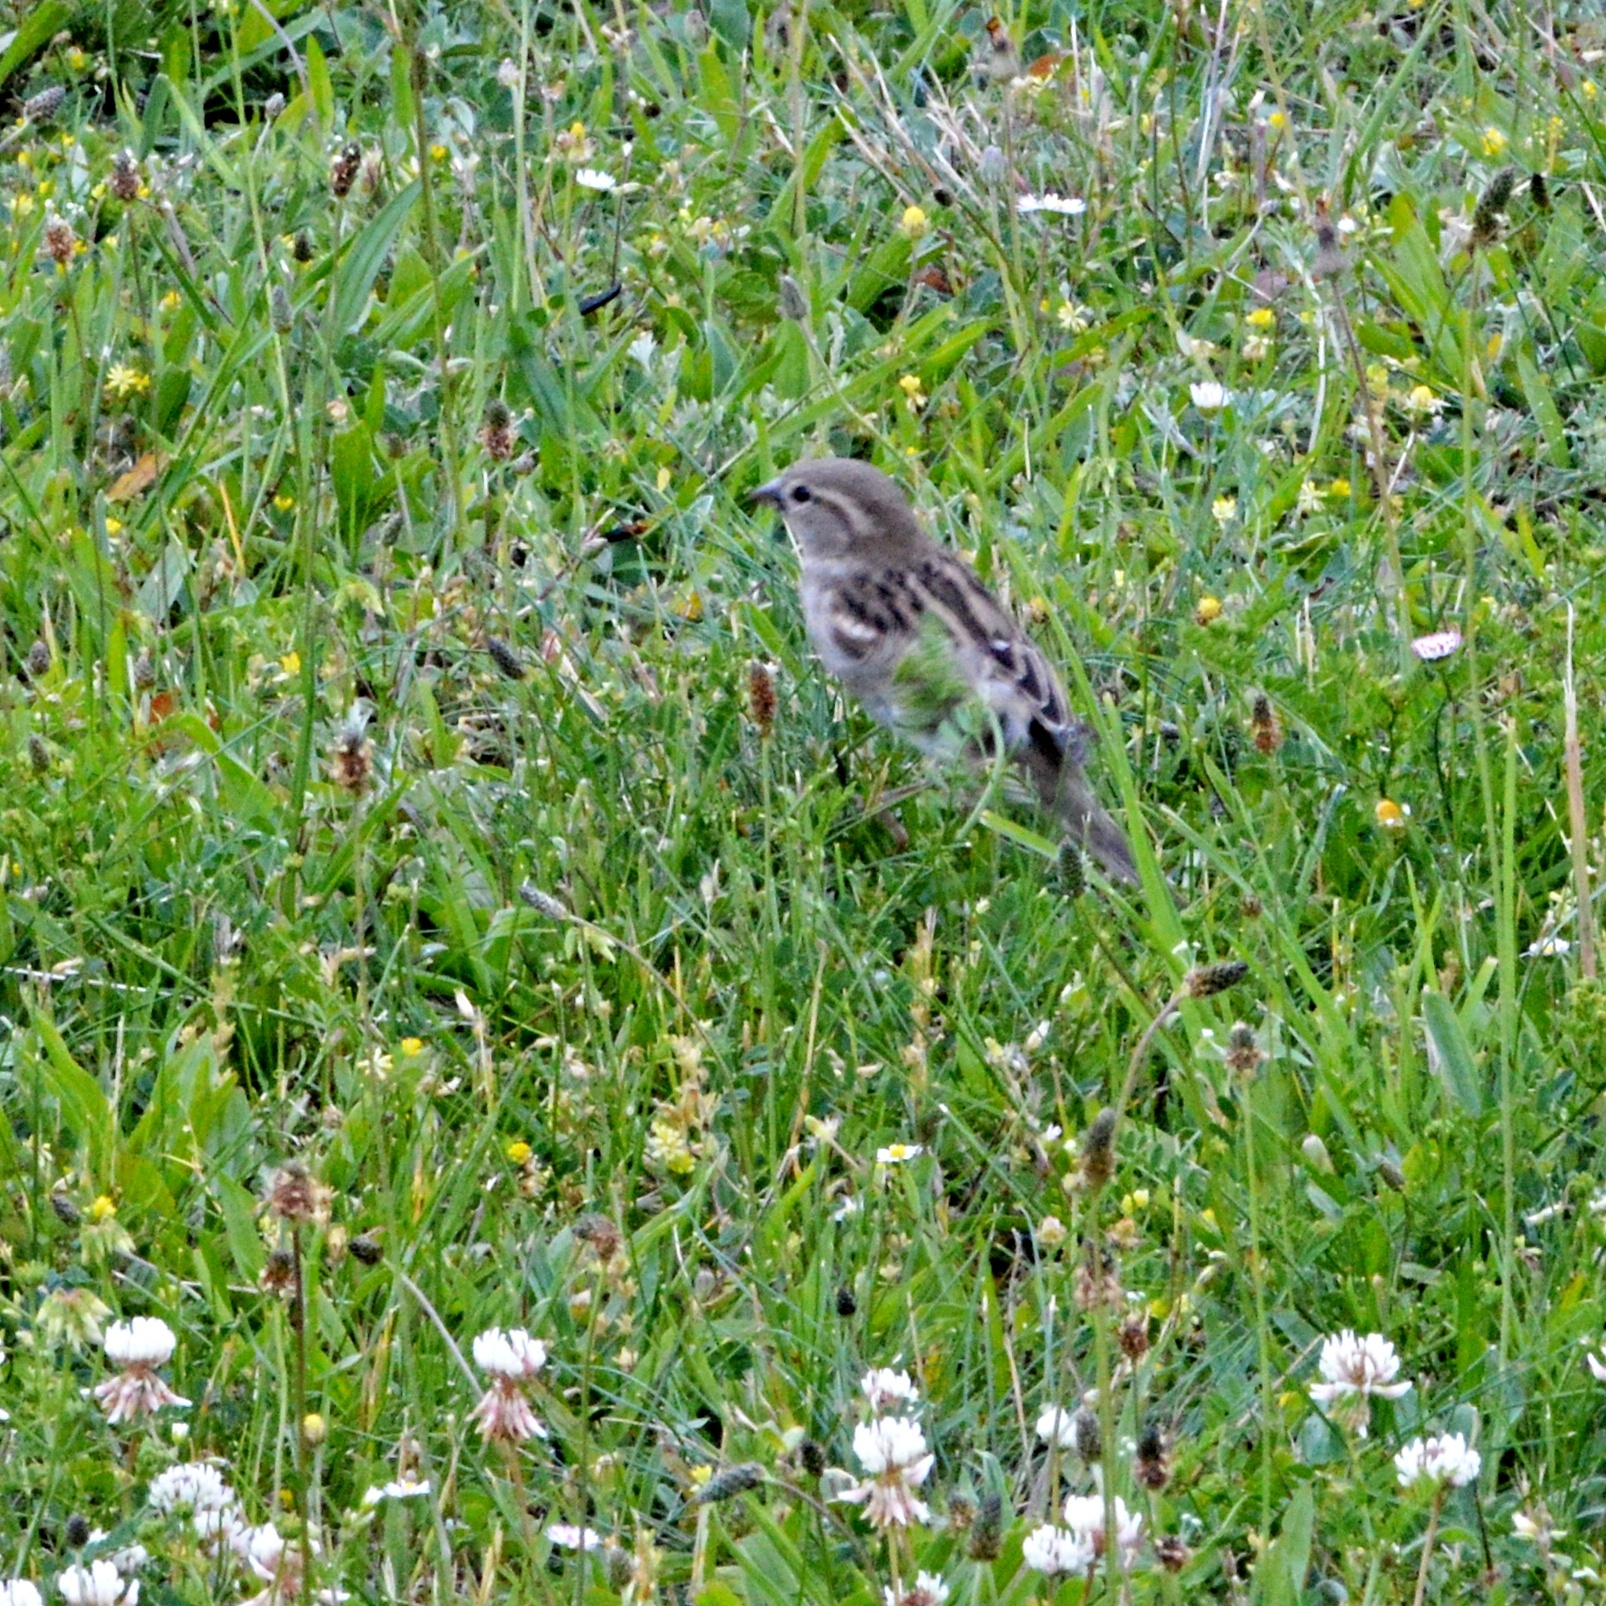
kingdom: Animalia
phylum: Chordata
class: Aves
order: Passeriformes
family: Passeridae
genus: Passer
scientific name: Passer domesticus
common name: House sparrow
